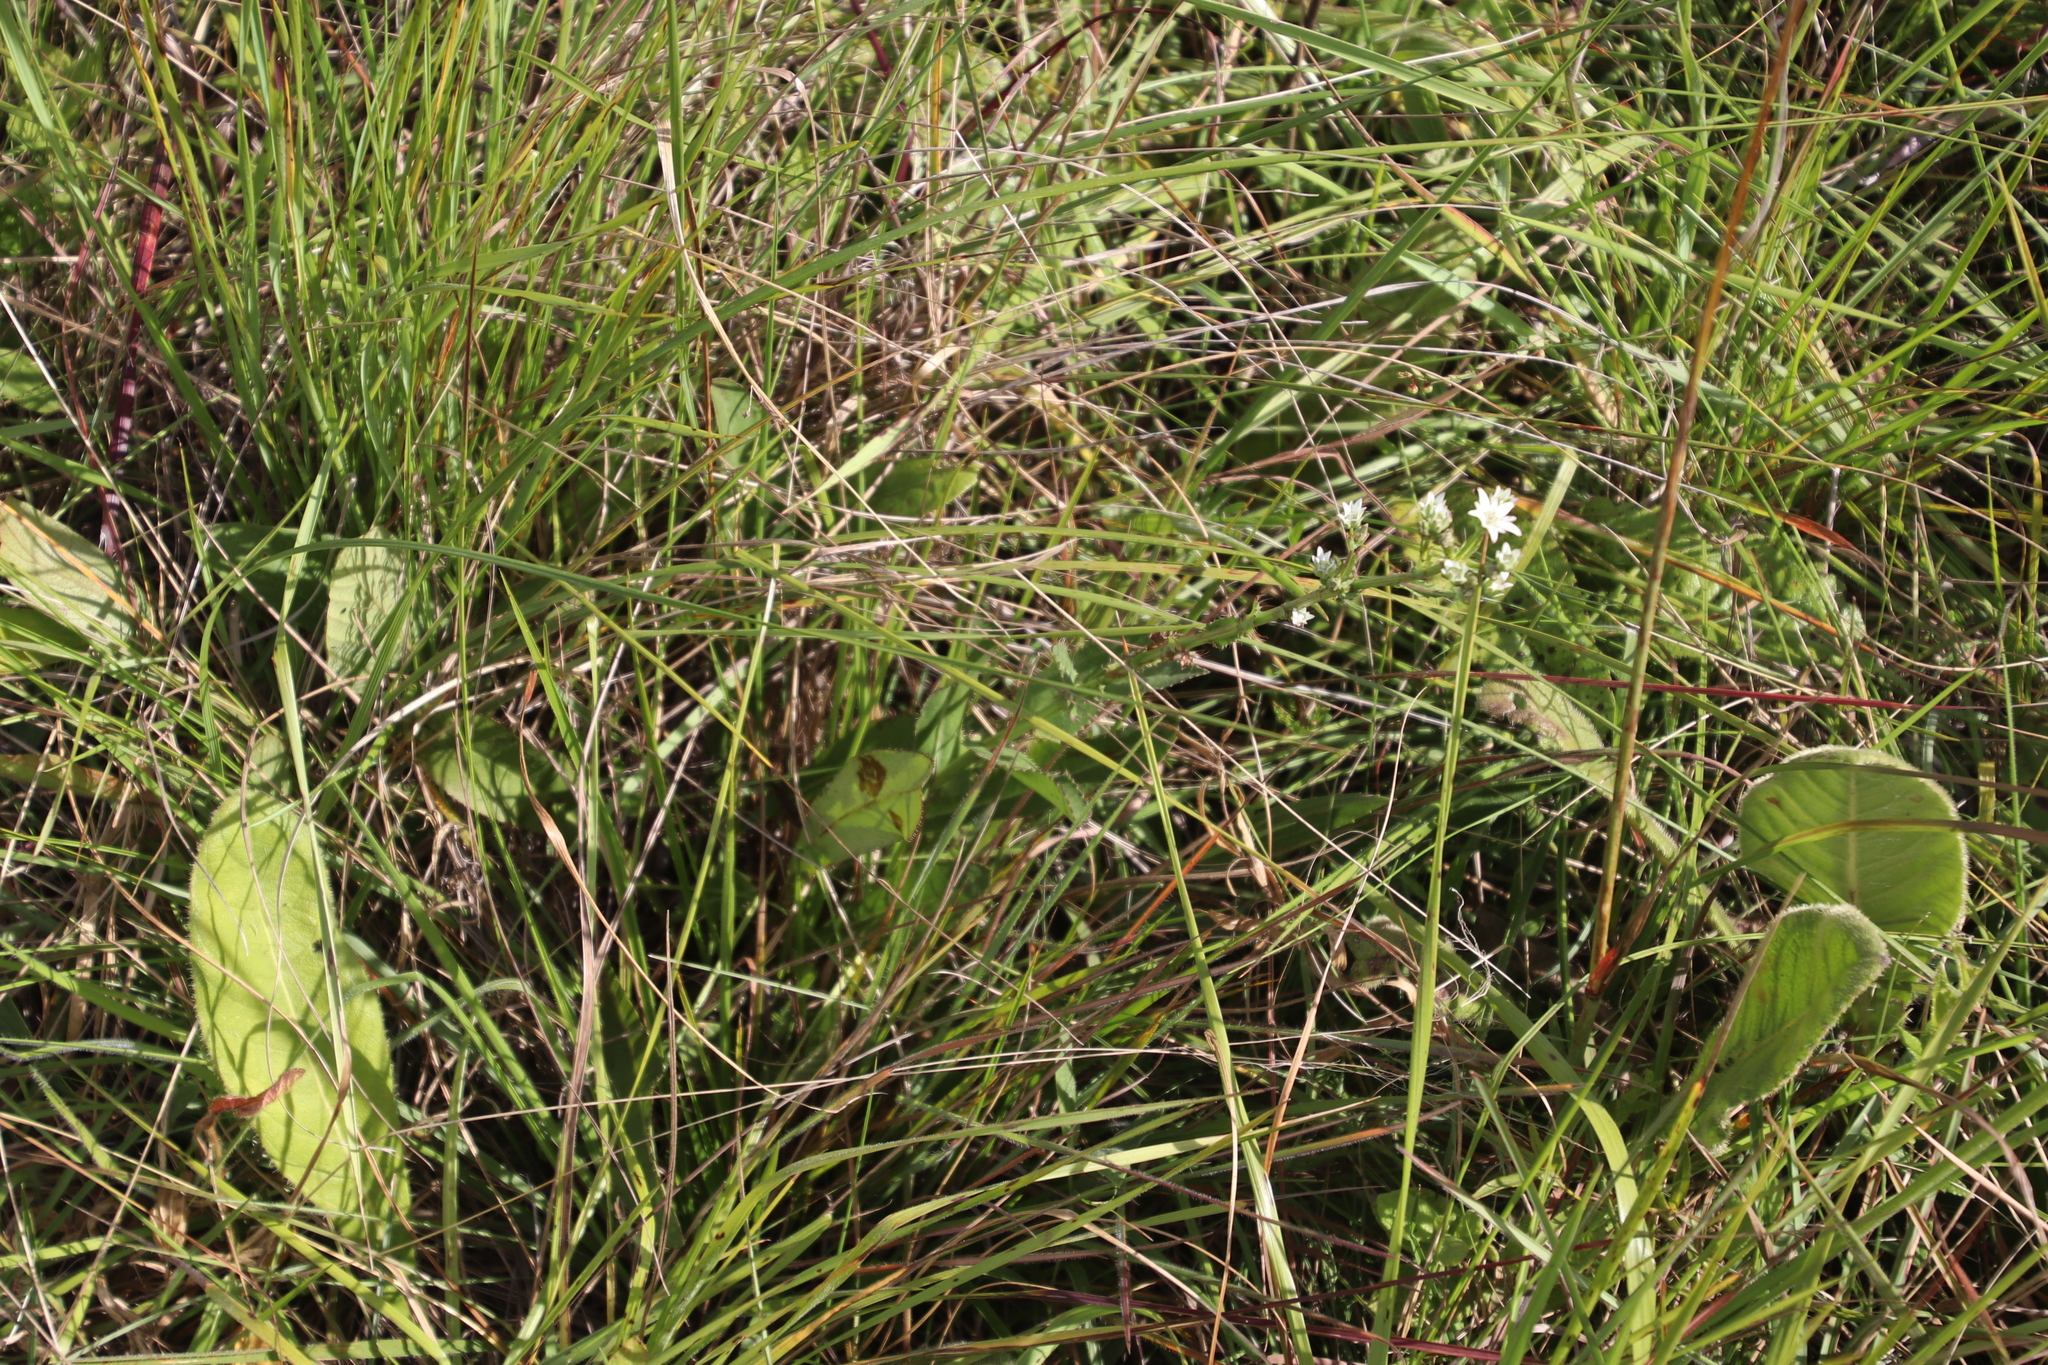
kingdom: Plantae
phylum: Tracheophyta
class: Magnoliopsida
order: Apiales
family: Apiaceae
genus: Alepidea
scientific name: Alepidea peduncularis
